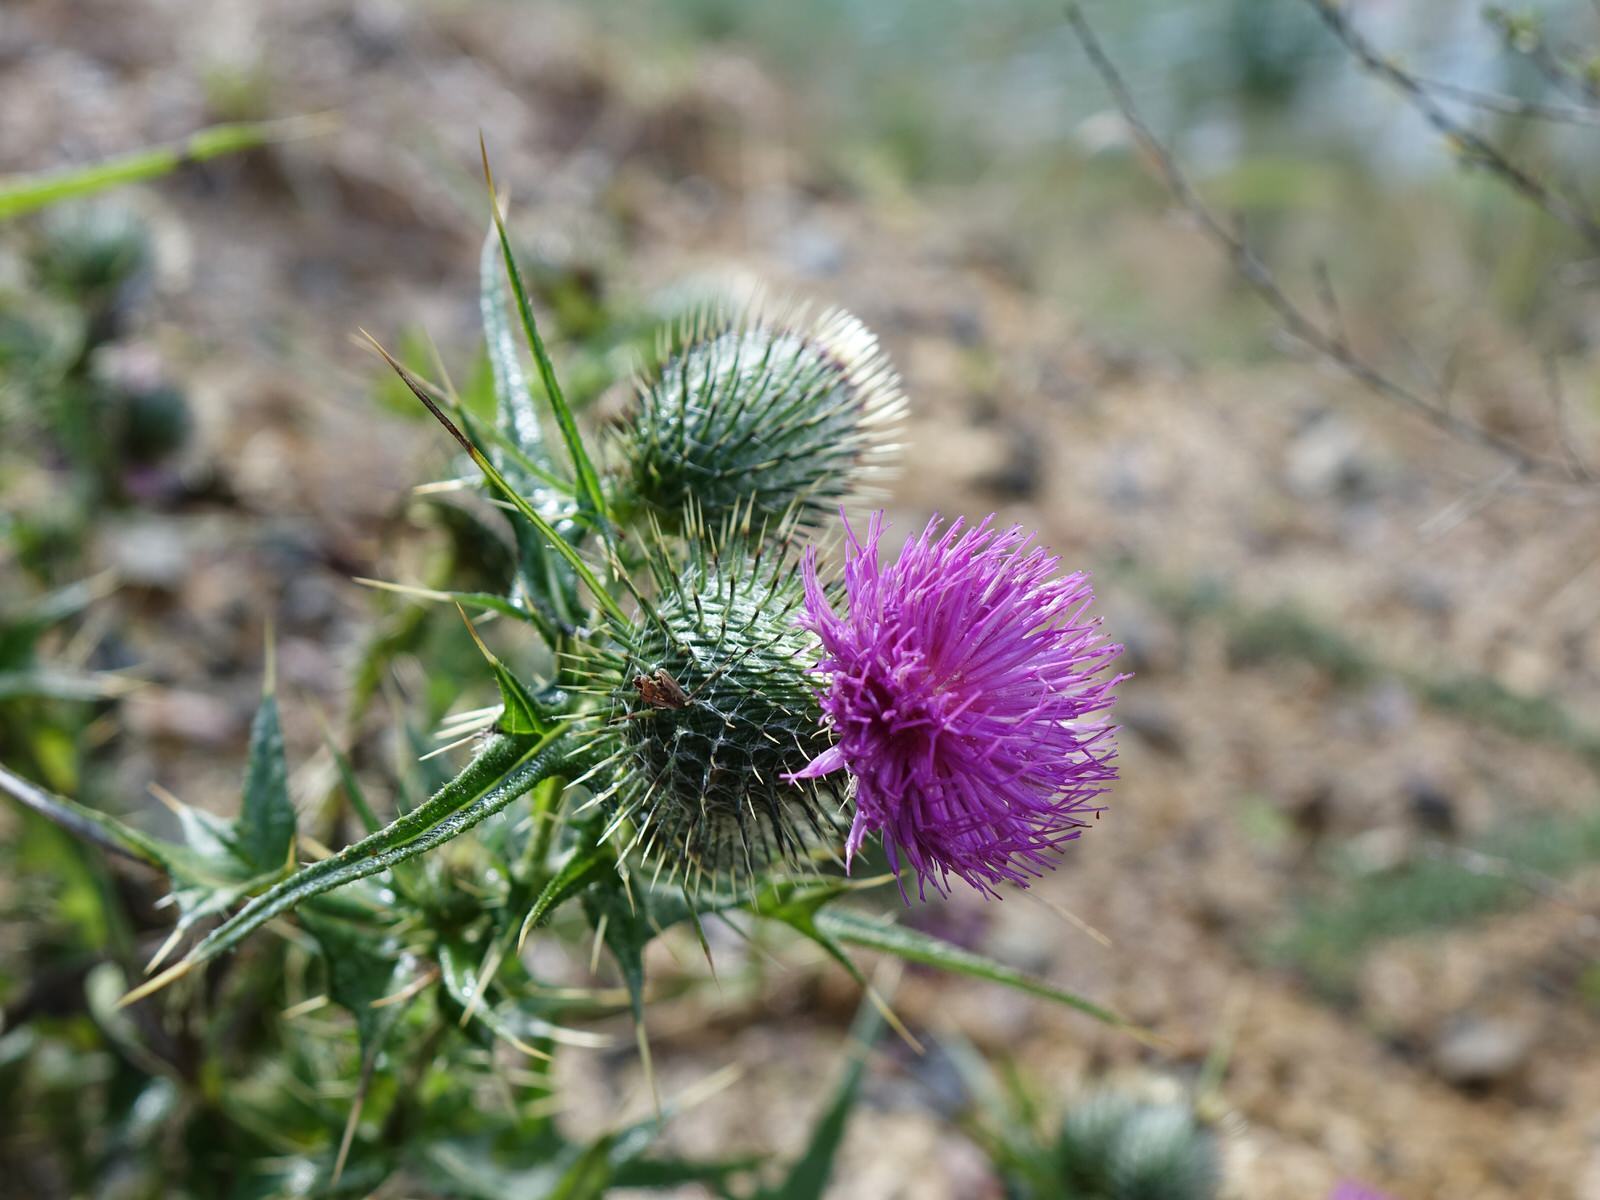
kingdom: Plantae
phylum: Tracheophyta
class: Magnoliopsida
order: Asterales
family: Asteraceae
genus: Cirsium
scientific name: Cirsium vulgare
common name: Bull thistle
